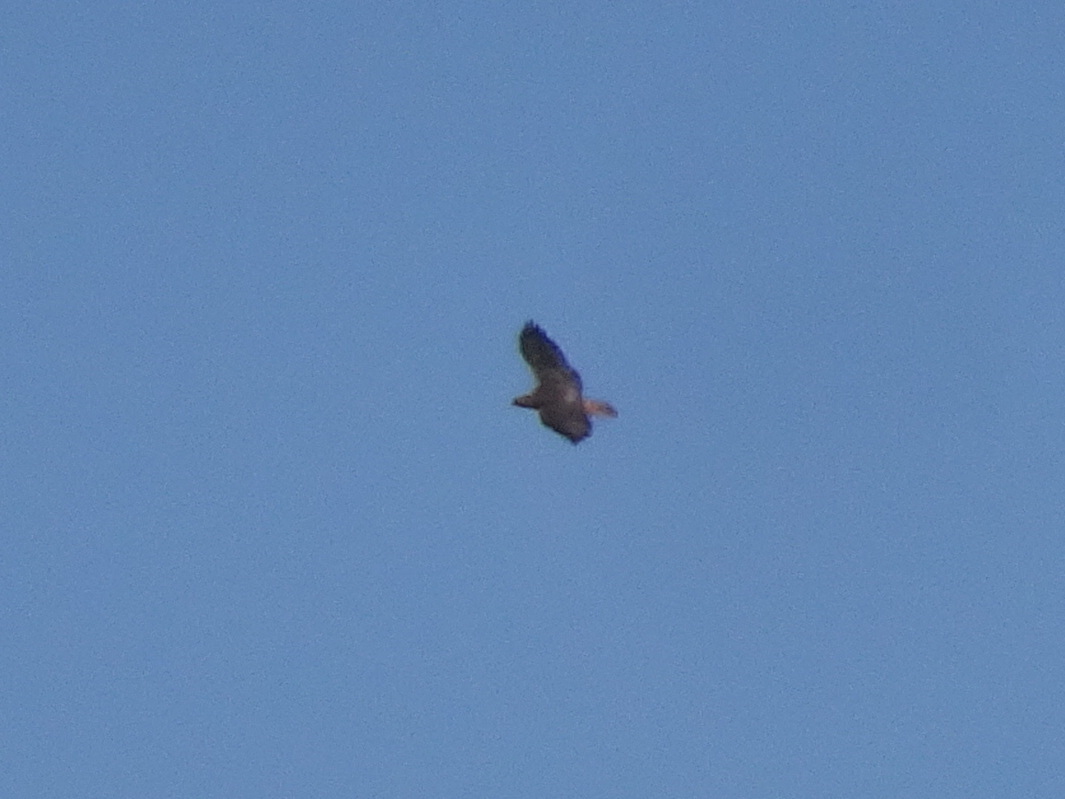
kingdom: Animalia
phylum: Chordata
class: Aves
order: Accipitriformes
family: Accipitridae
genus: Buteo
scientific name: Buteo jamaicensis
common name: Red-tailed hawk
